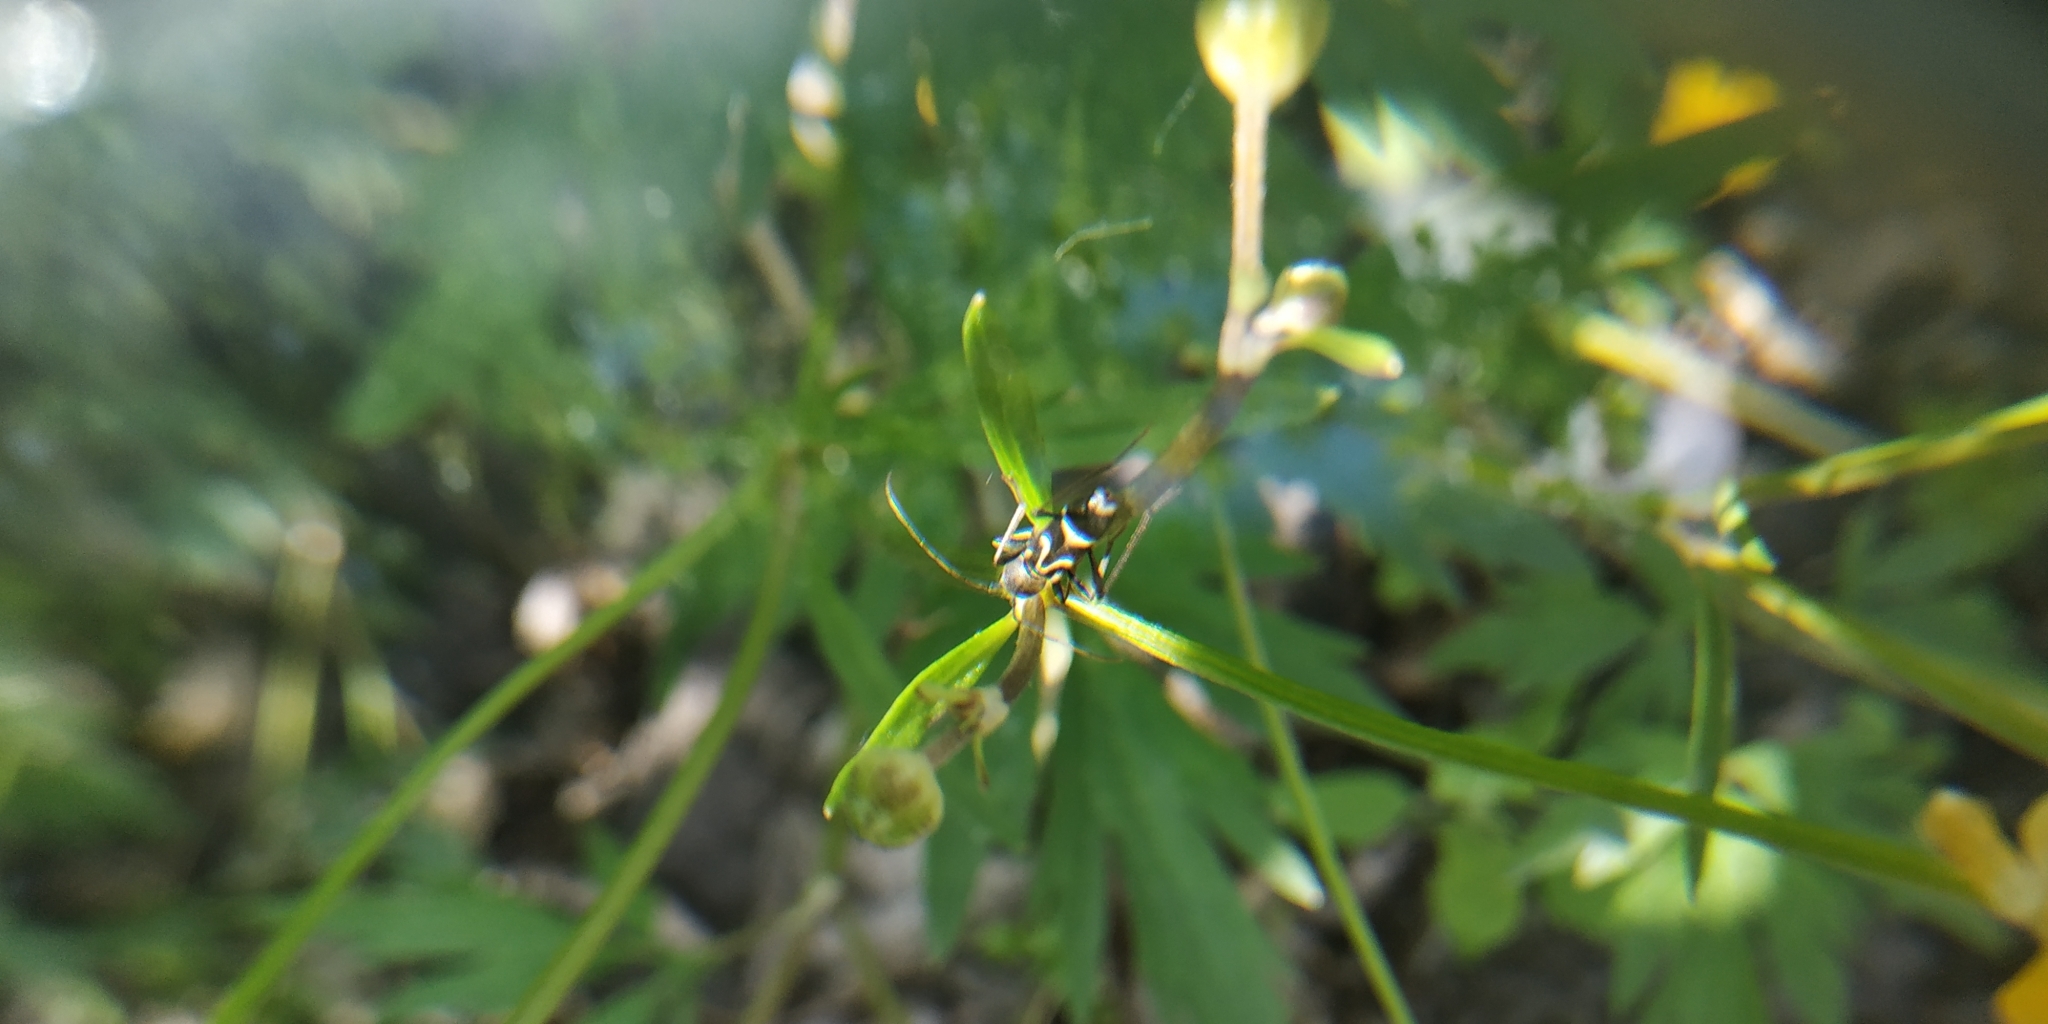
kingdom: Animalia
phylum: Arthropoda
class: Insecta
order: Coleoptera
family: Cerambycidae
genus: Rhaphuma
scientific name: Rhaphuma gracilipes
